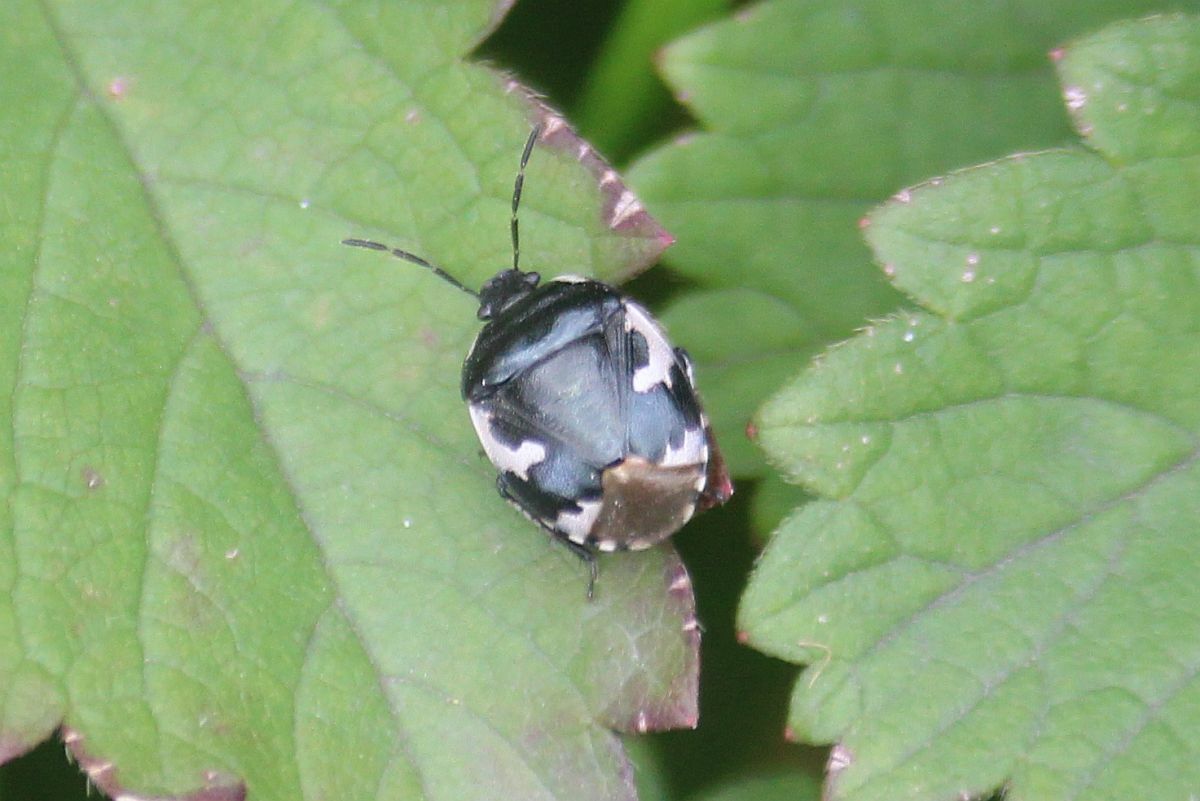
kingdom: Animalia
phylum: Arthropoda
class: Insecta
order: Hemiptera
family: Cydnidae
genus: Tritomegas
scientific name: Tritomegas bicolor
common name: Pied shieldbug
